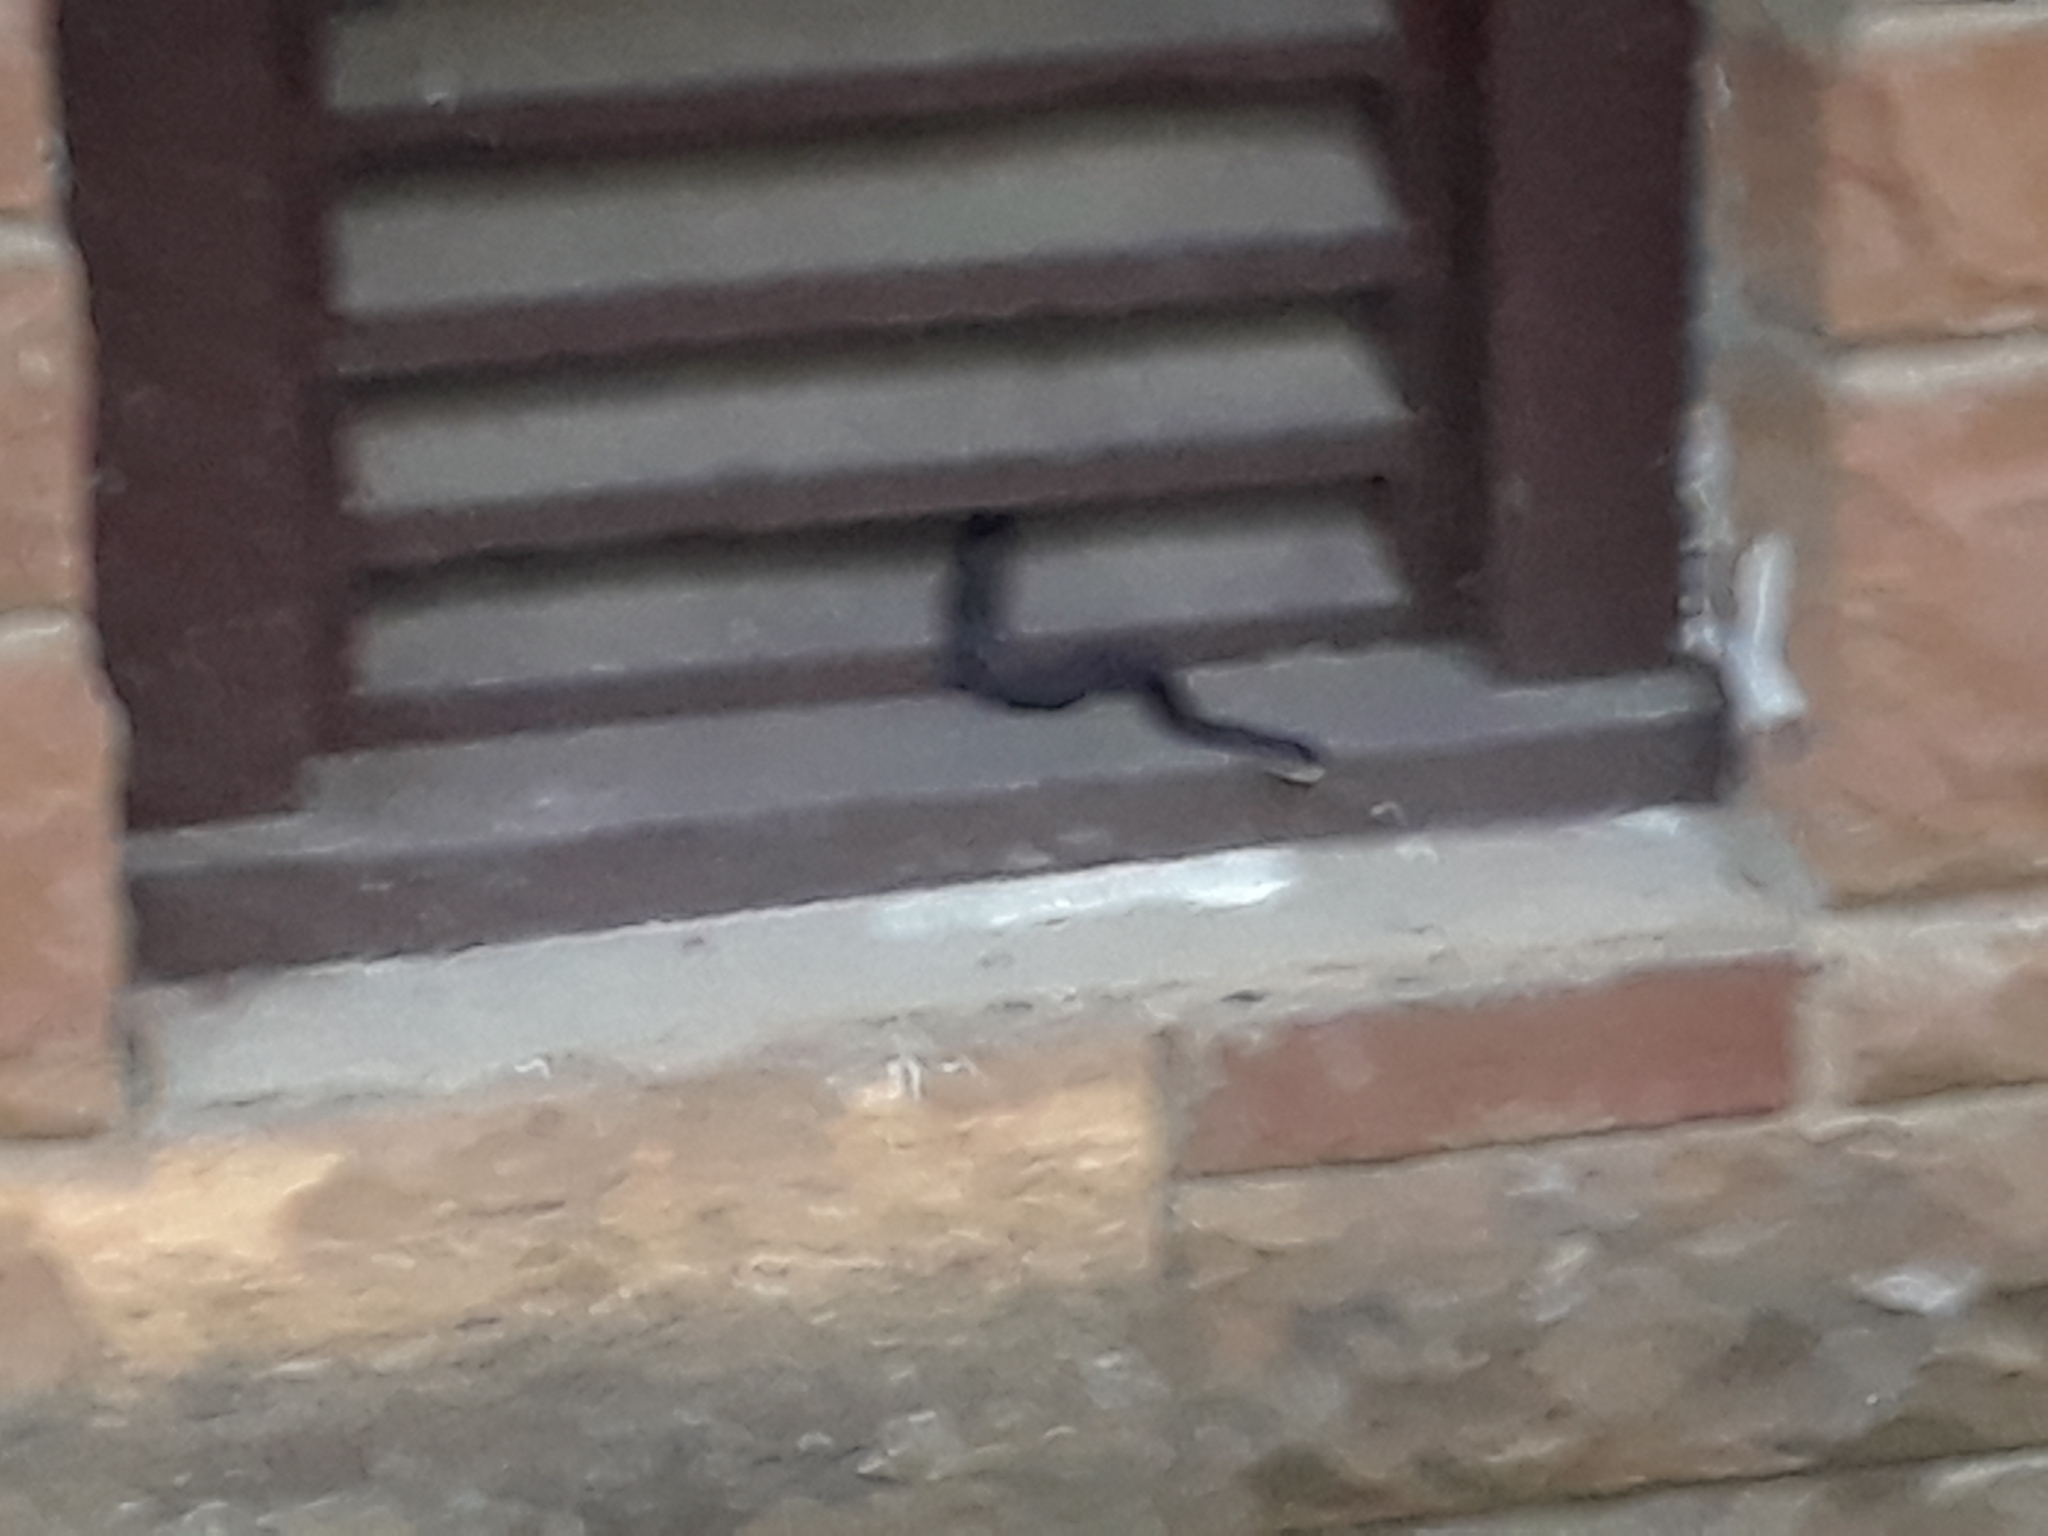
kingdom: Animalia
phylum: Chordata
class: Squamata
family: Colubridae
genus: Pantherophis
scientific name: Pantherophis obsoletus
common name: Black rat snake
